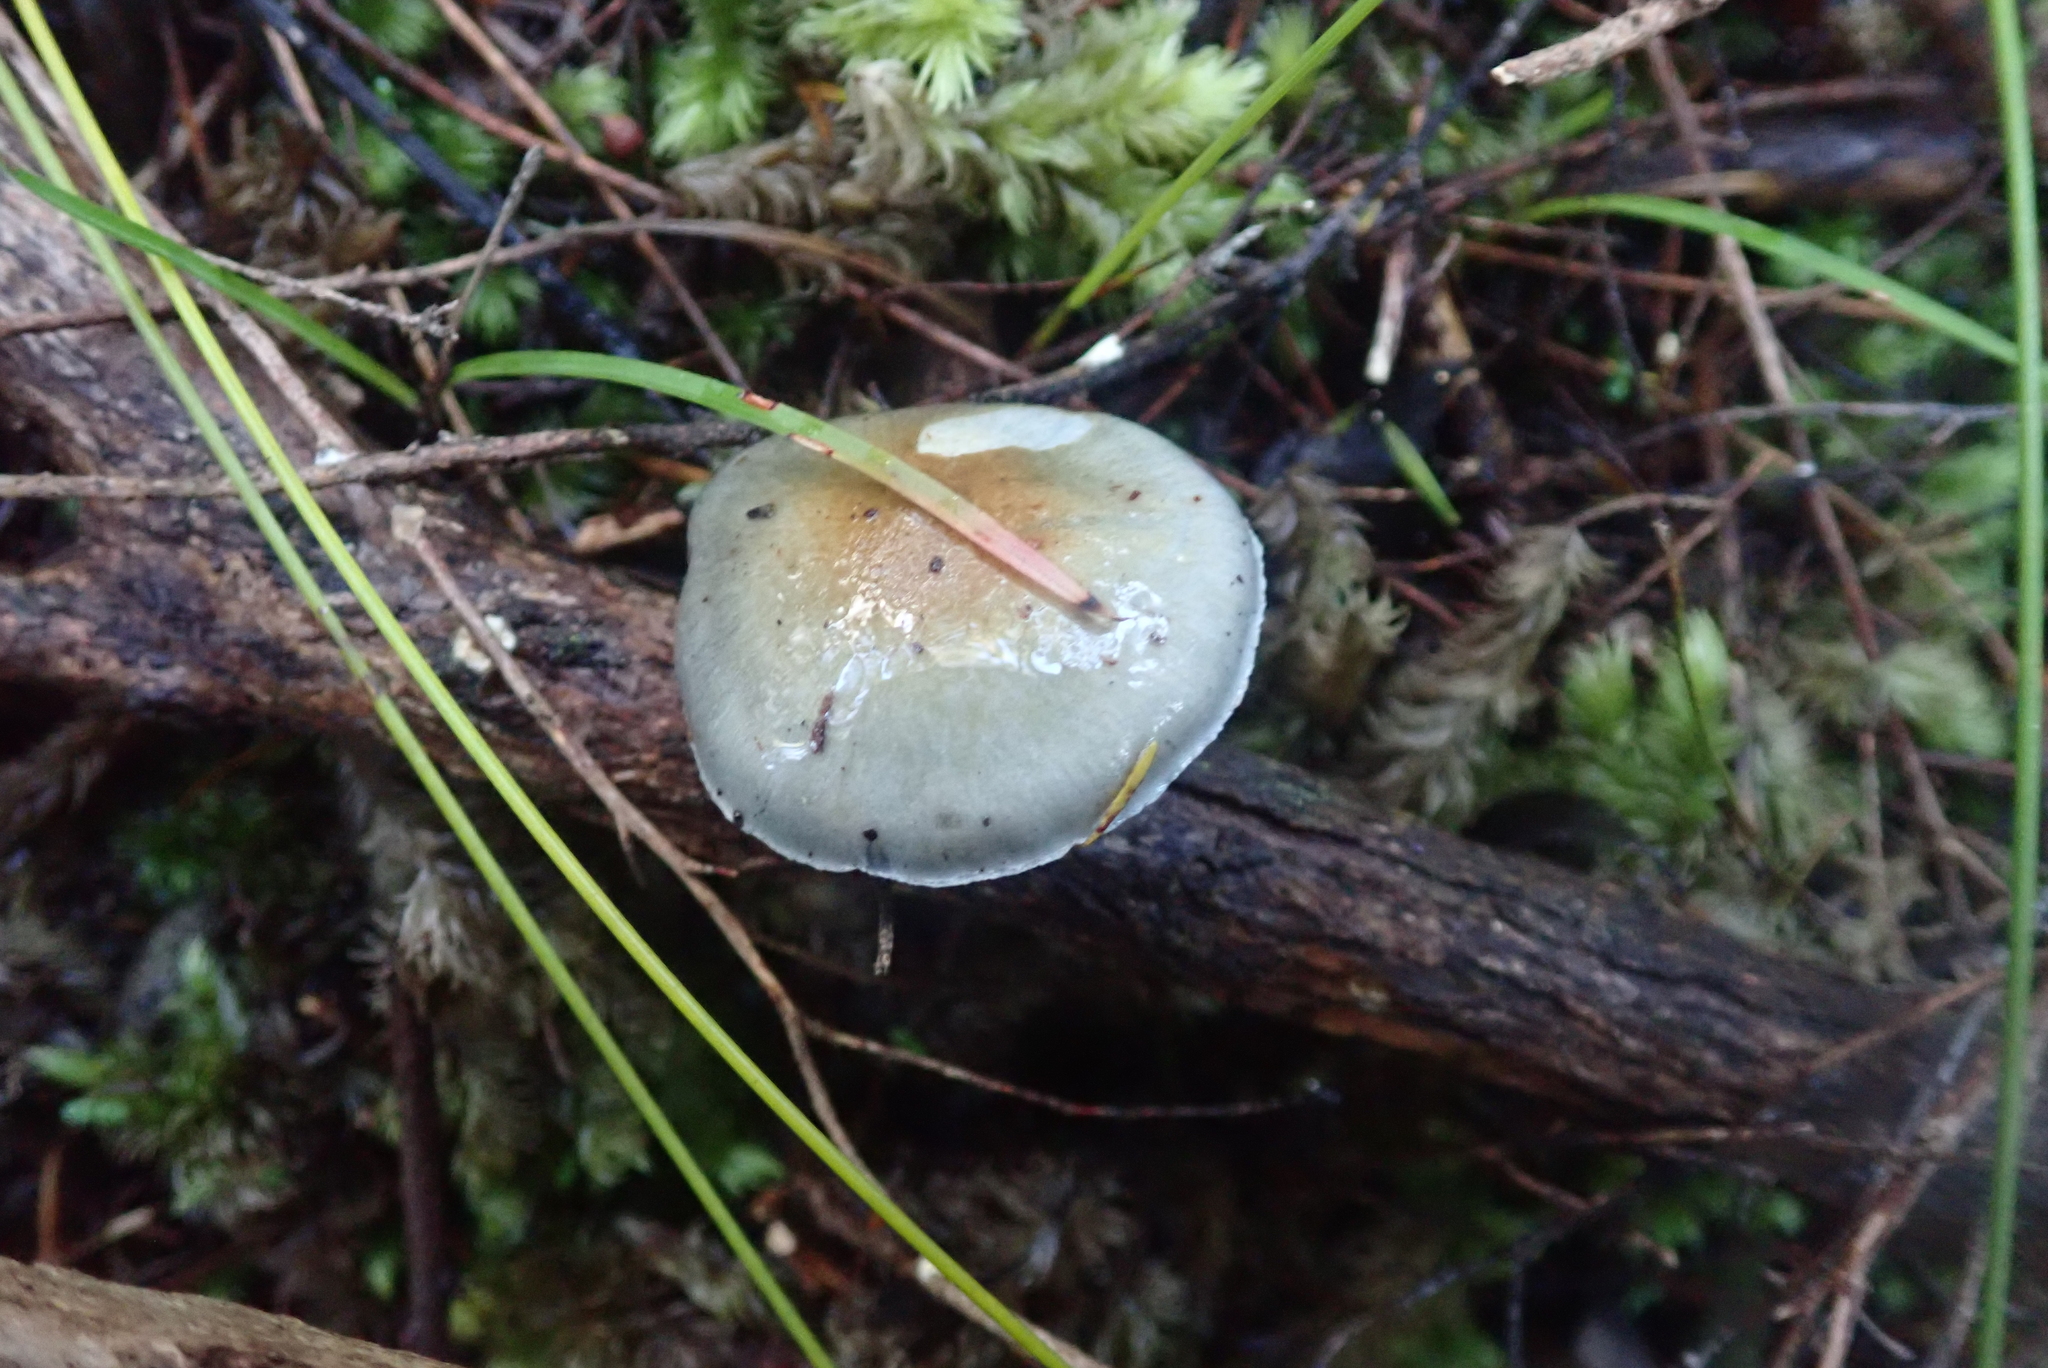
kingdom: Fungi
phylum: Basidiomycota
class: Agaricomycetes
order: Agaricales
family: Cortinariaceae
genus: Cortinarius
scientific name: Cortinarius rotundisporus
